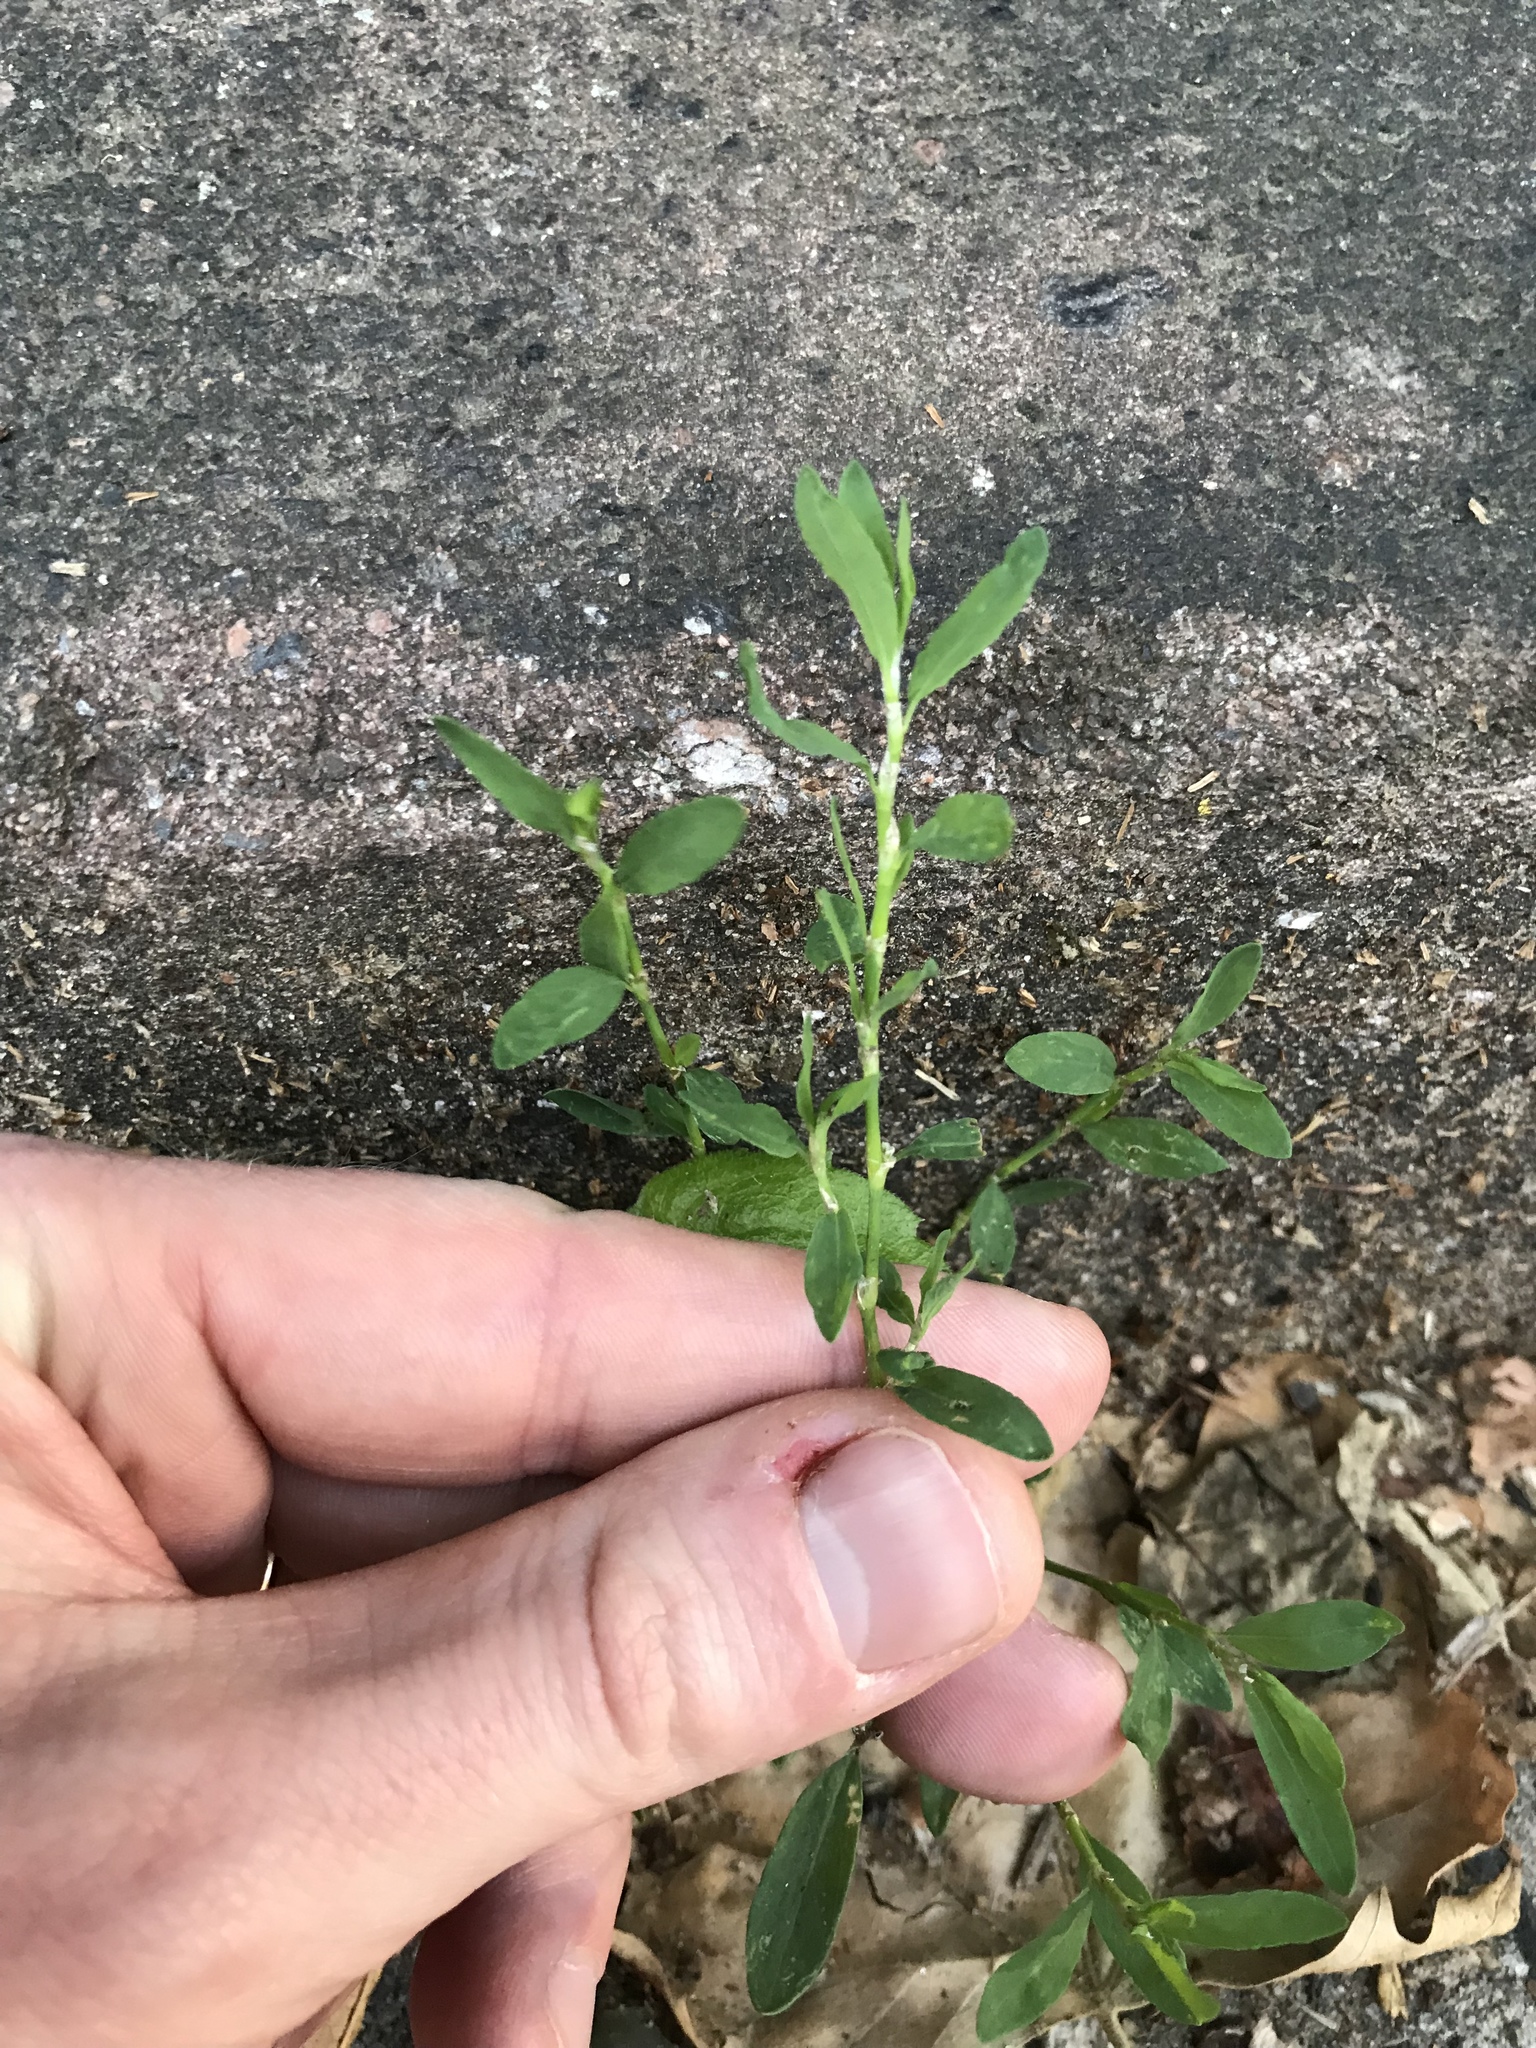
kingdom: Plantae
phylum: Tracheophyta
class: Magnoliopsida
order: Caryophyllales
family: Polygonaceae
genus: Polygonum
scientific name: Polygonum aviculare
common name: Prostrate knotweed
